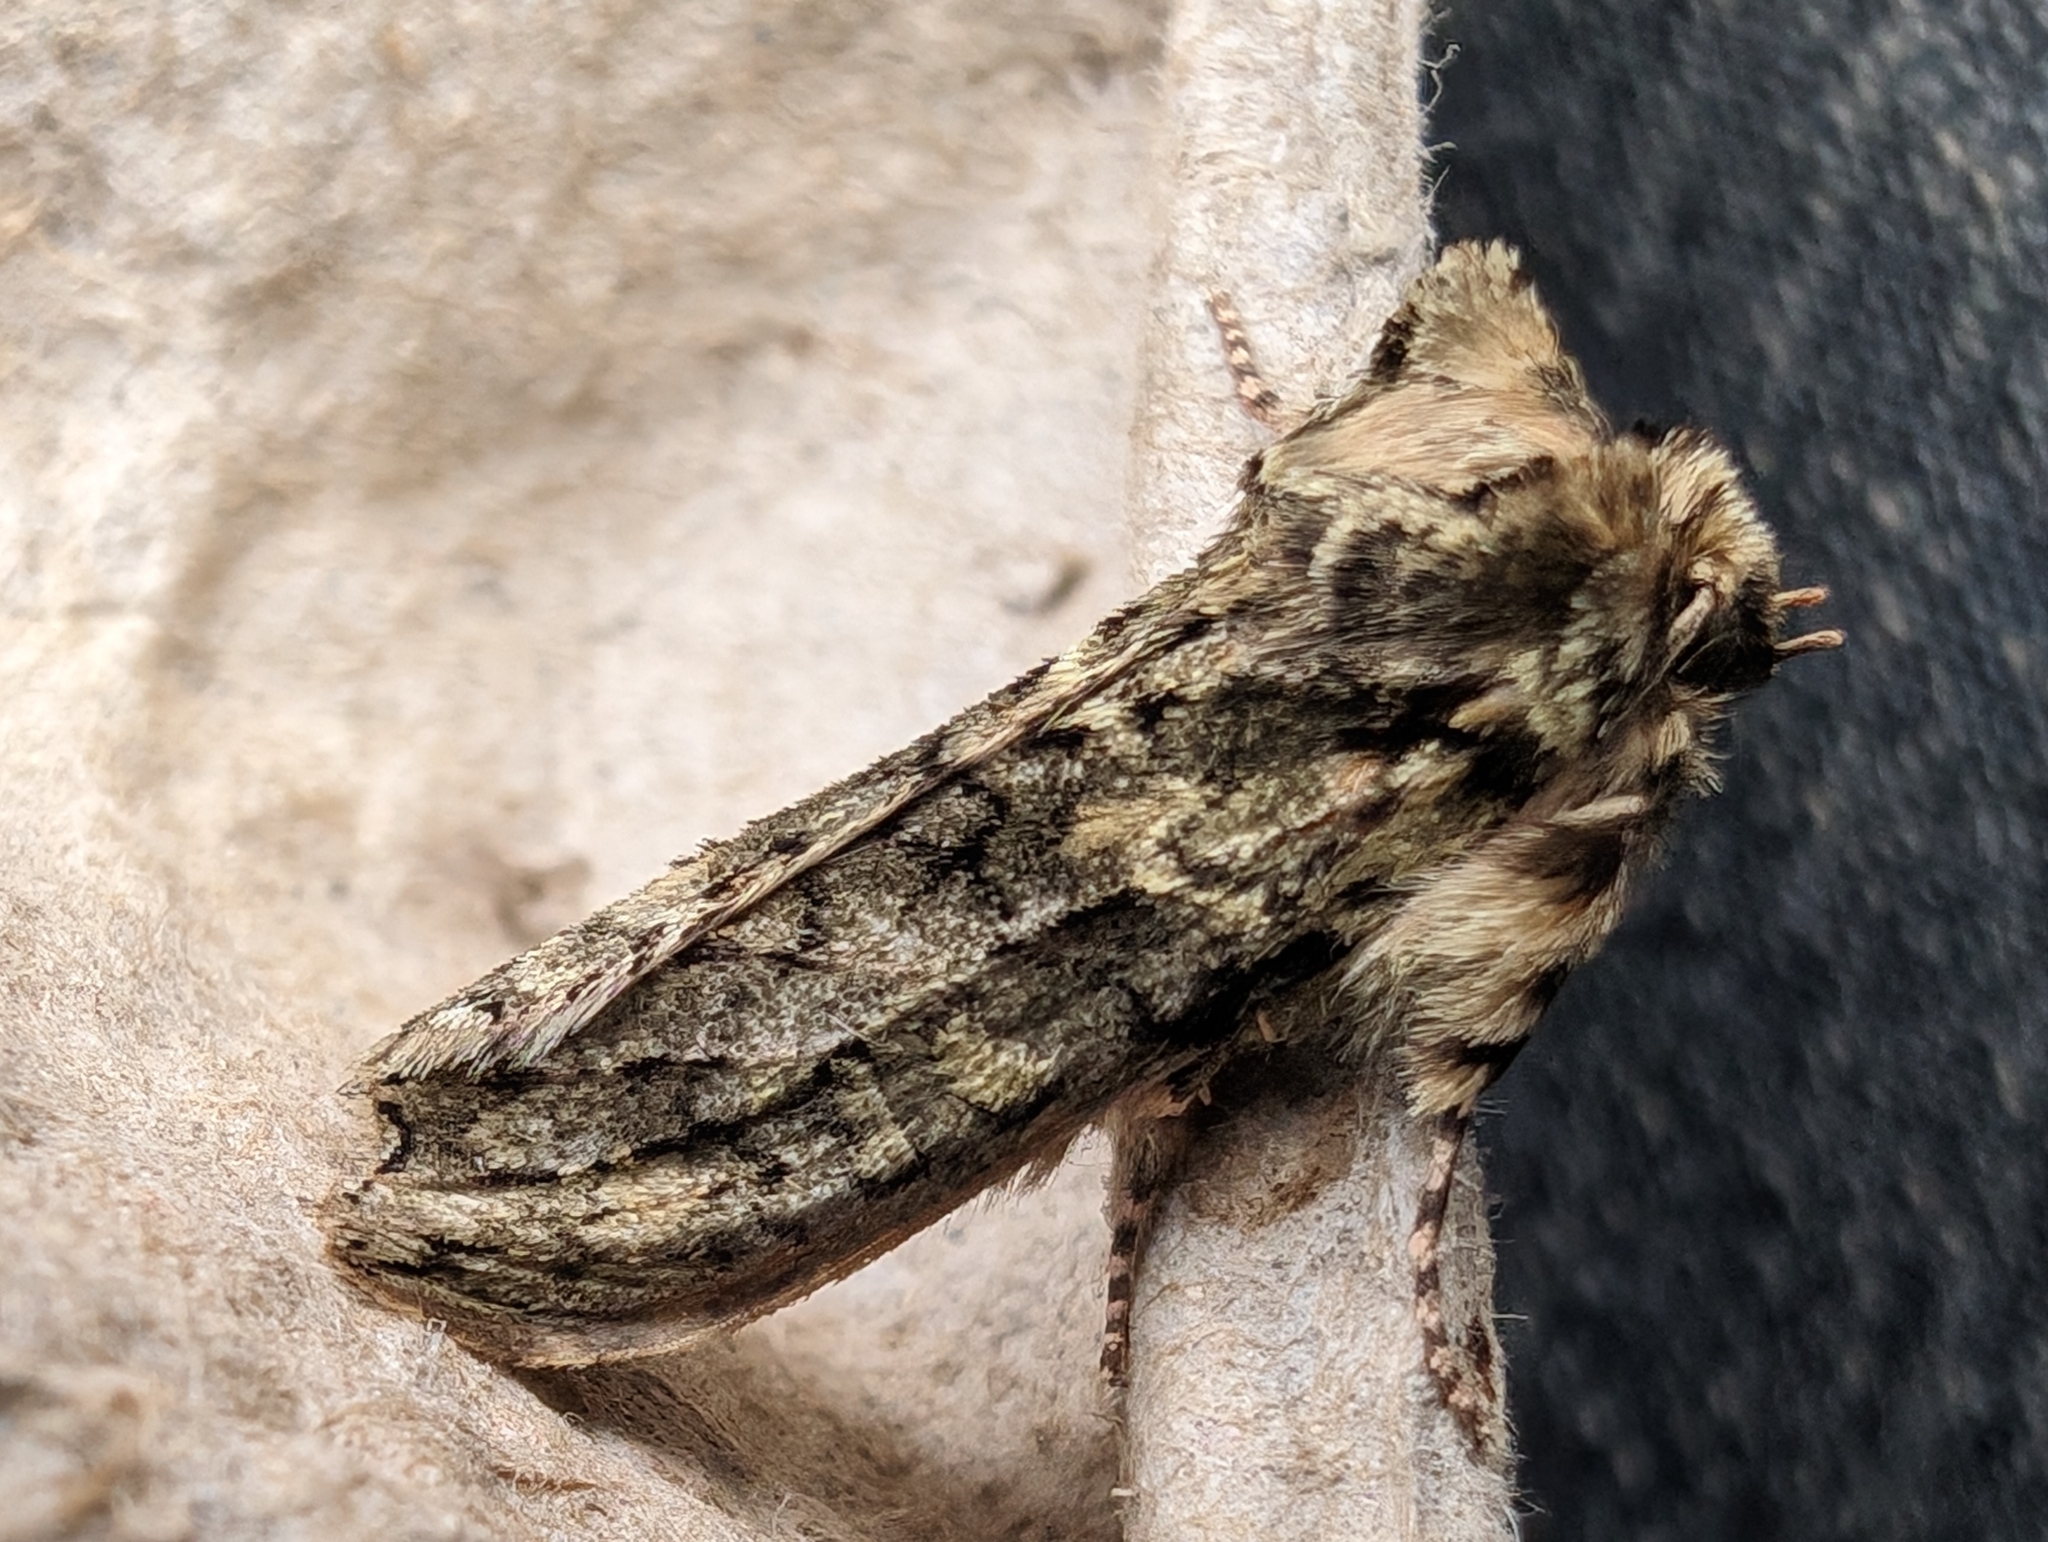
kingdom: Animalia
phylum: Arthropoda
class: Insecta
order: Lepidoptera
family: Drepanidae
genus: Polyploca
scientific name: Polyploca ridens
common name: Frosted green
